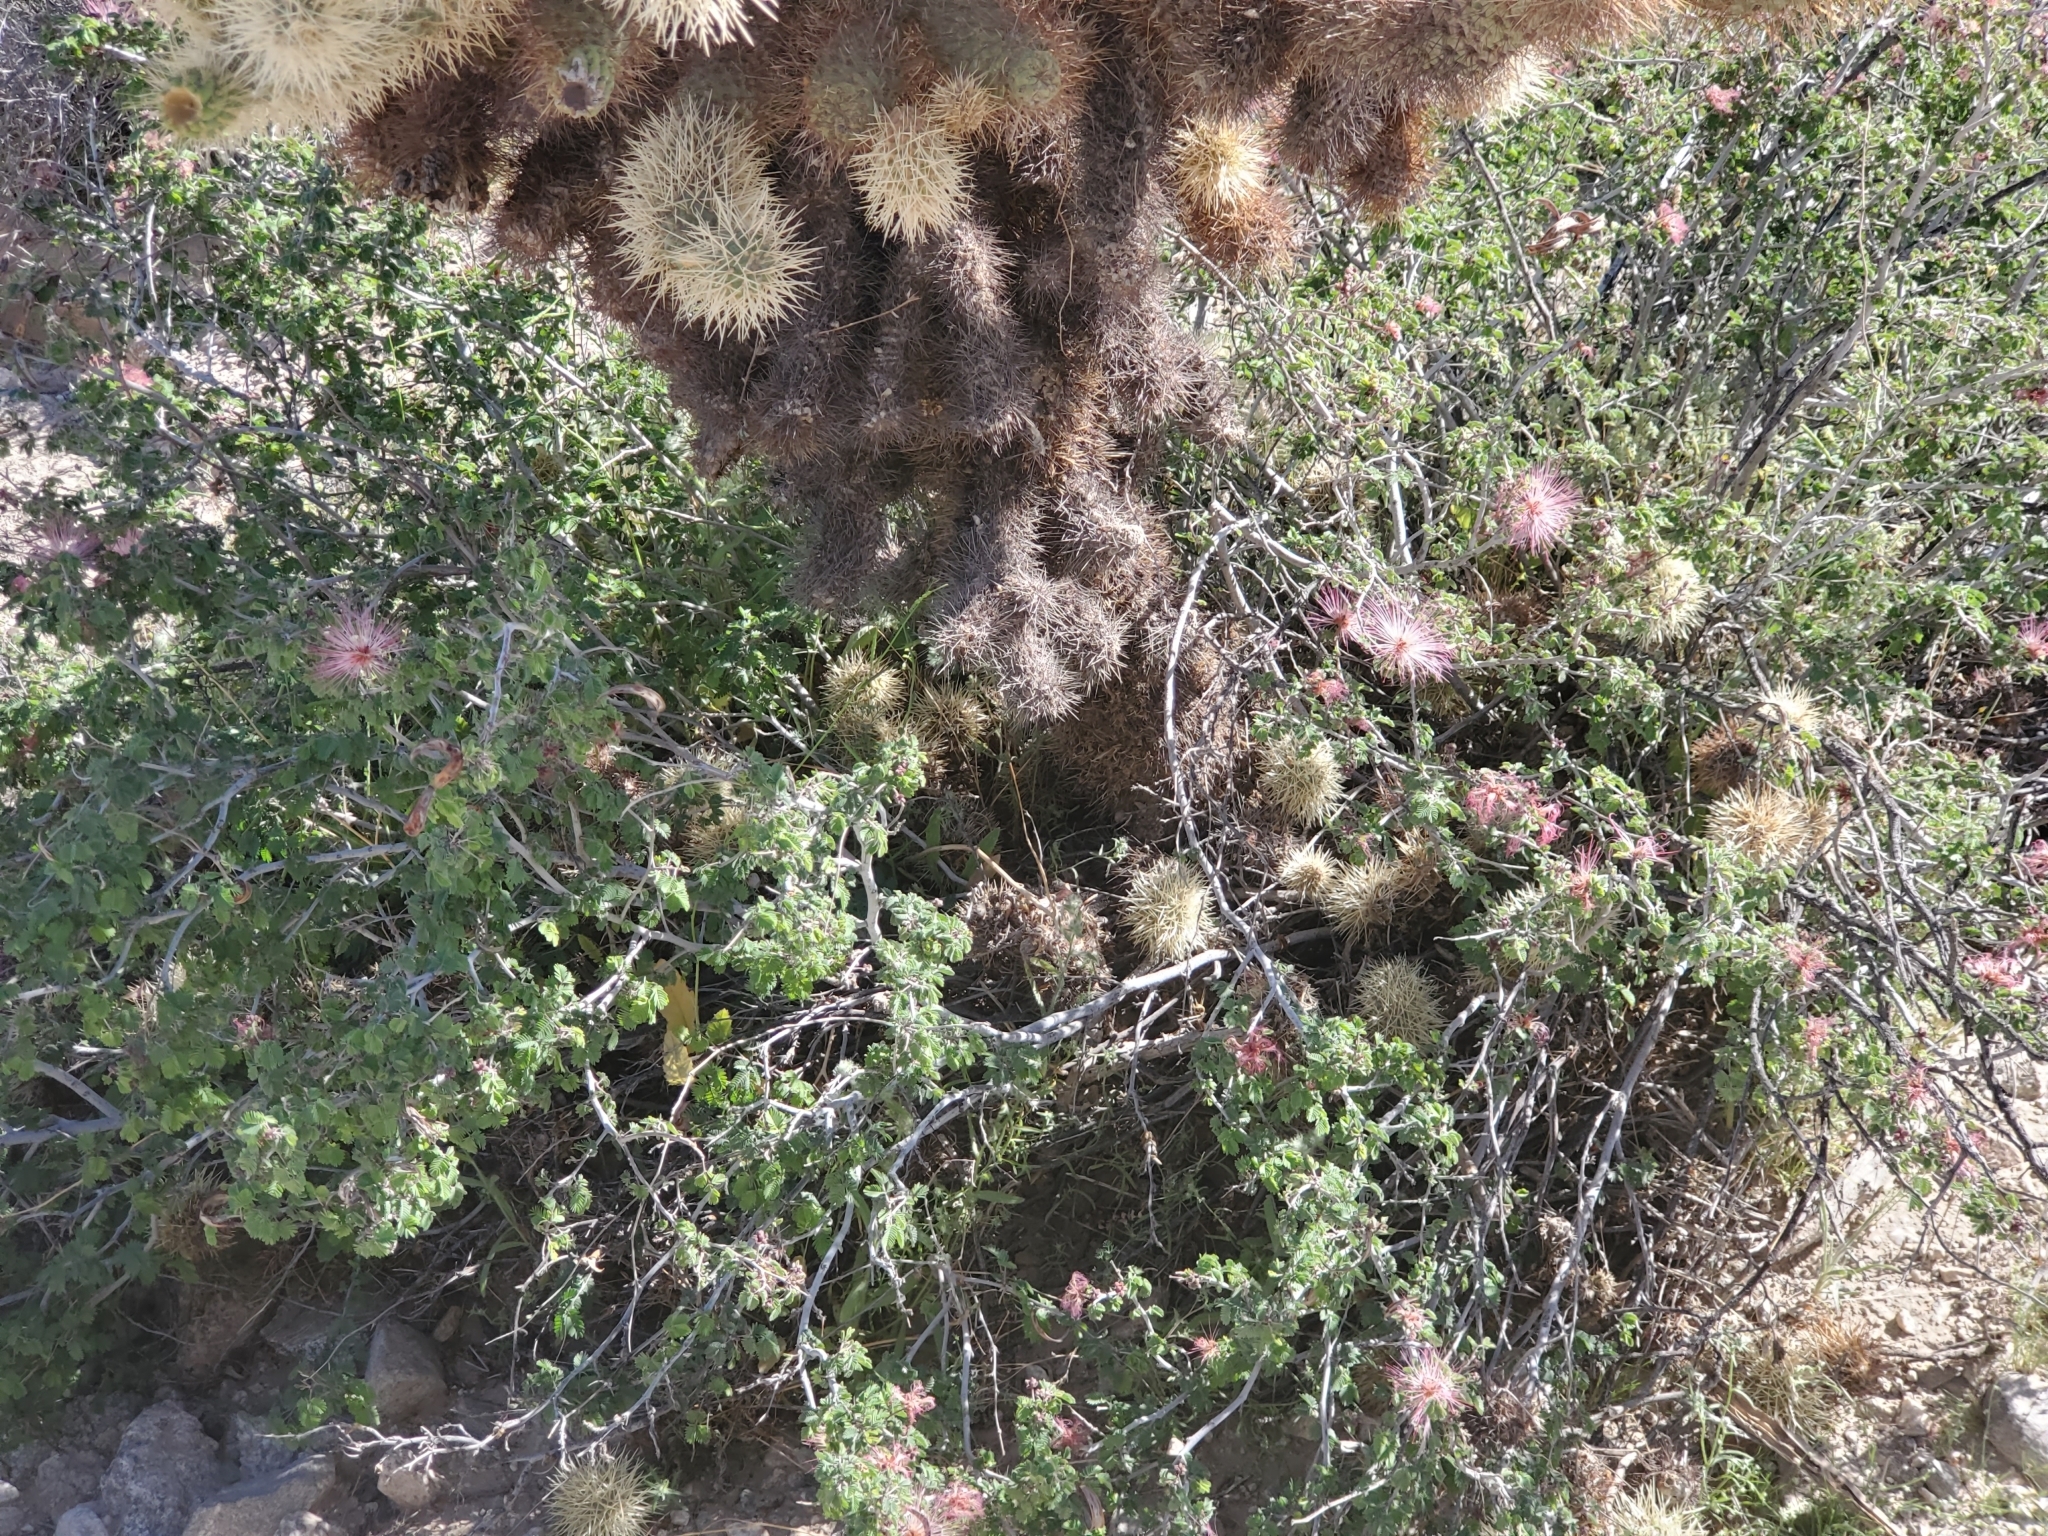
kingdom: Plantae
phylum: Tracheophyta
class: Magnoliopsida
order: Fabales
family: Fabaceae
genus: Calliandra
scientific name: Calliandra eriophylla
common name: Fairy-duster
